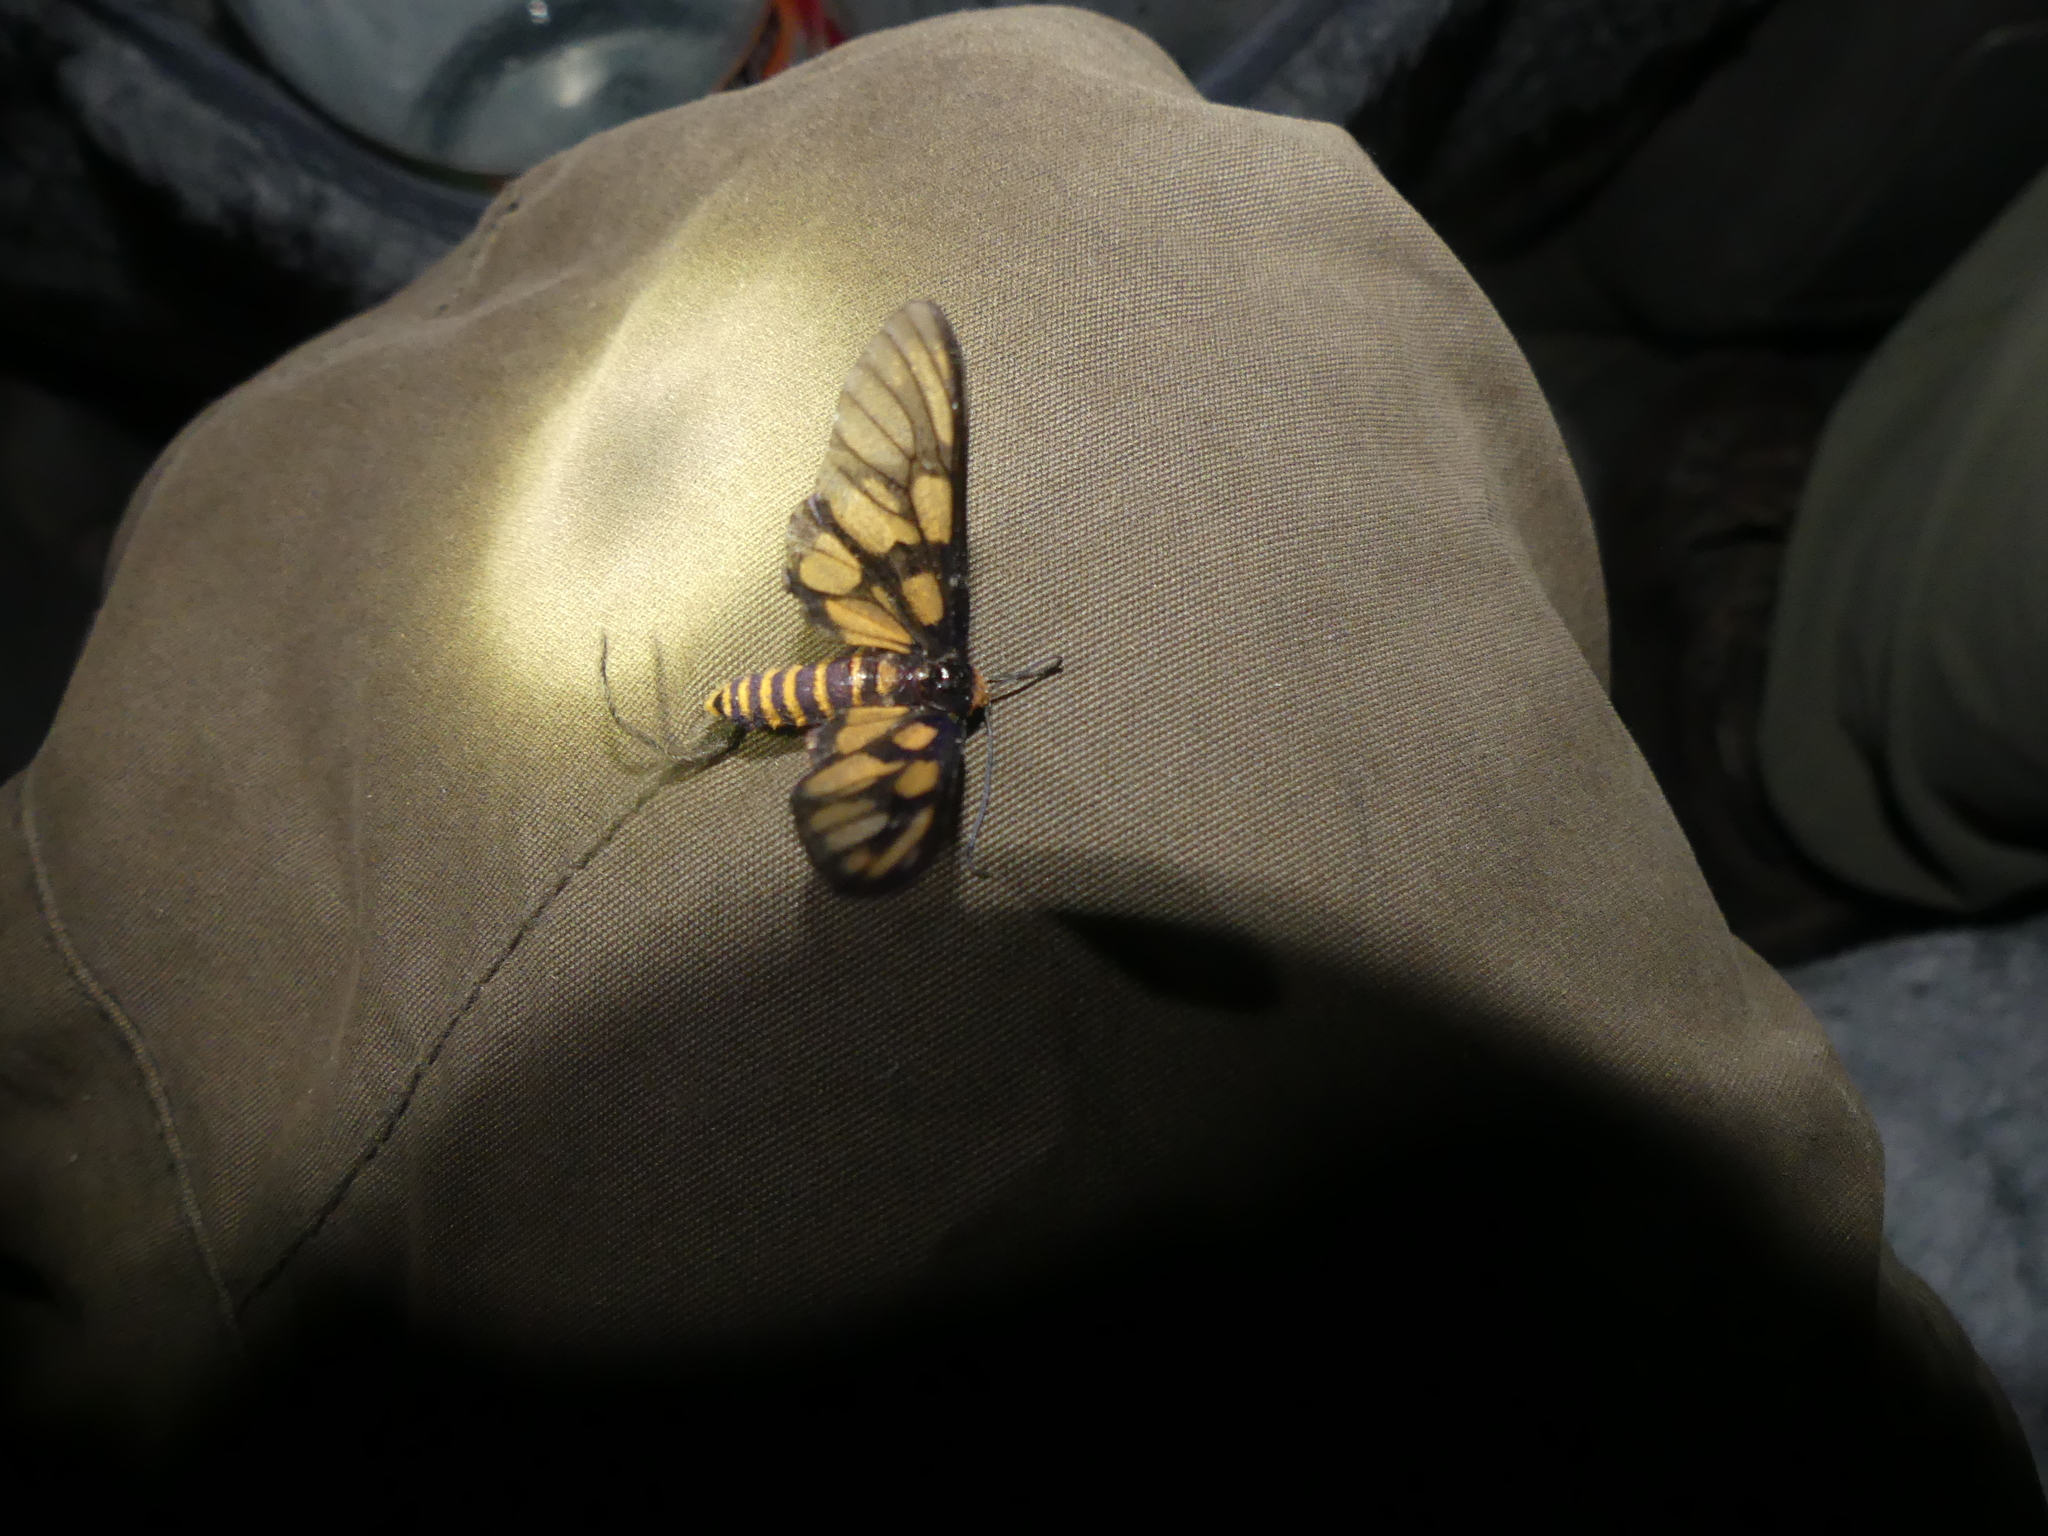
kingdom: Animalia
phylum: Arthropoda
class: Insecta
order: Lepidoptera
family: Erebidae
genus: Amata
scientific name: Amata aperta
